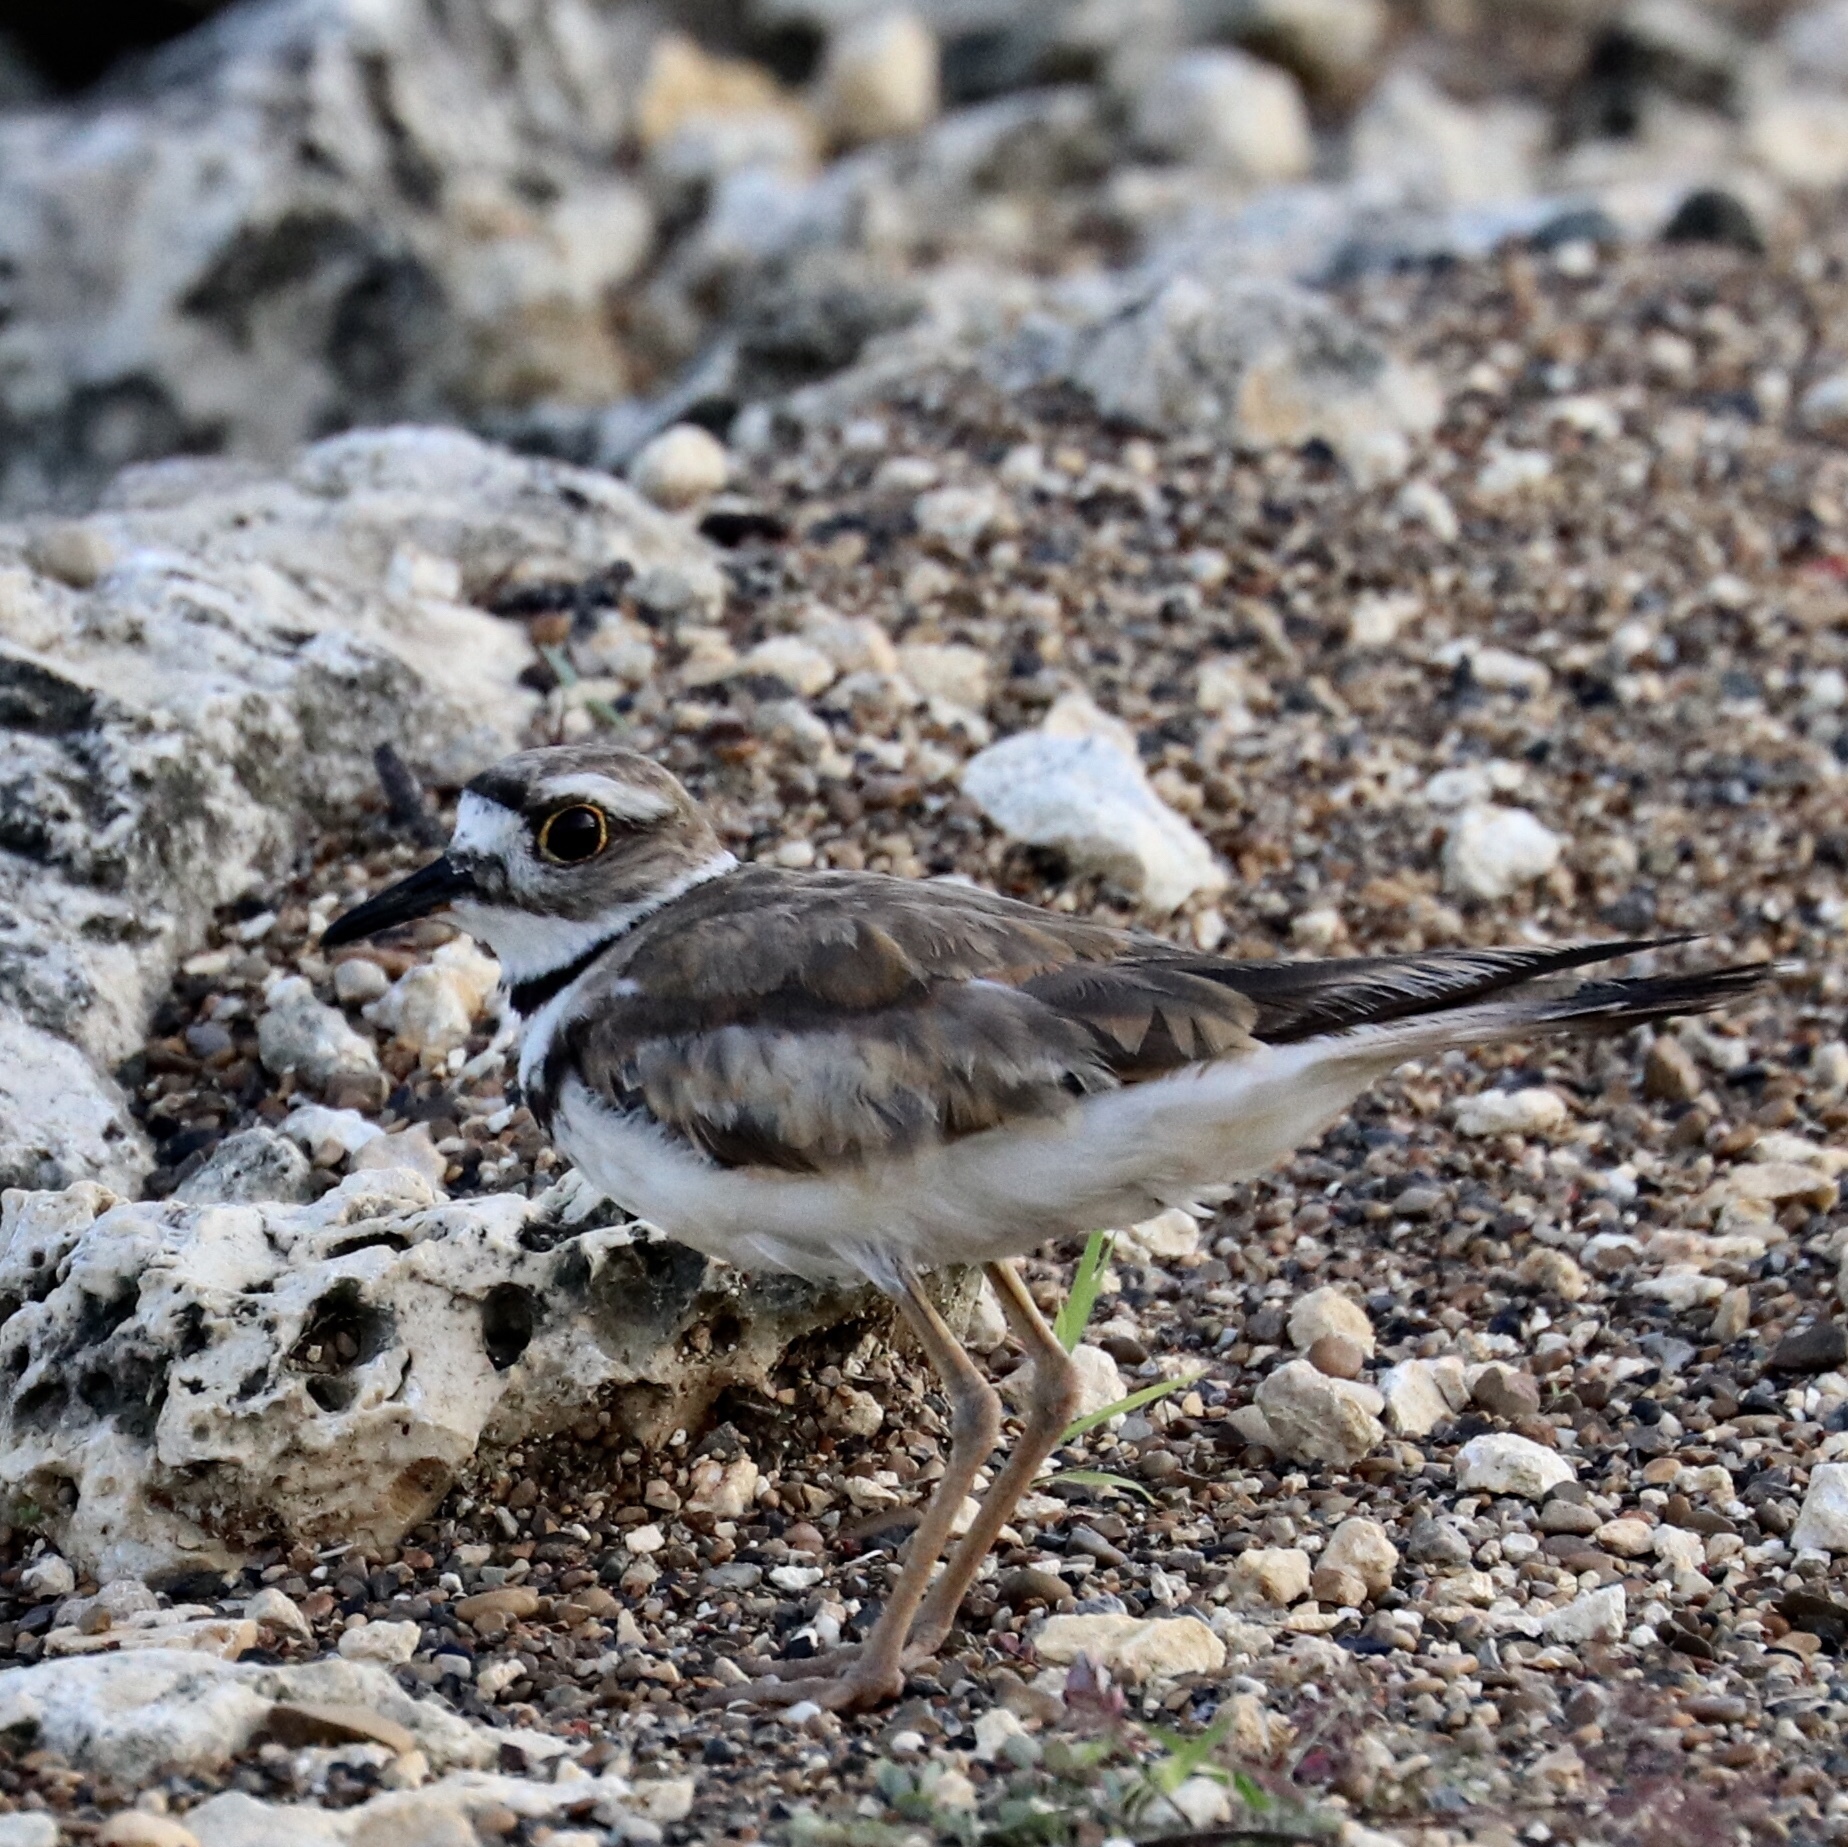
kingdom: Animalia
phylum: Chordata
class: Aves
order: Charadriiformes
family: Charadriidae
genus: Charadrius
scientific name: Charadrius vociferus
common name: Killdeer
